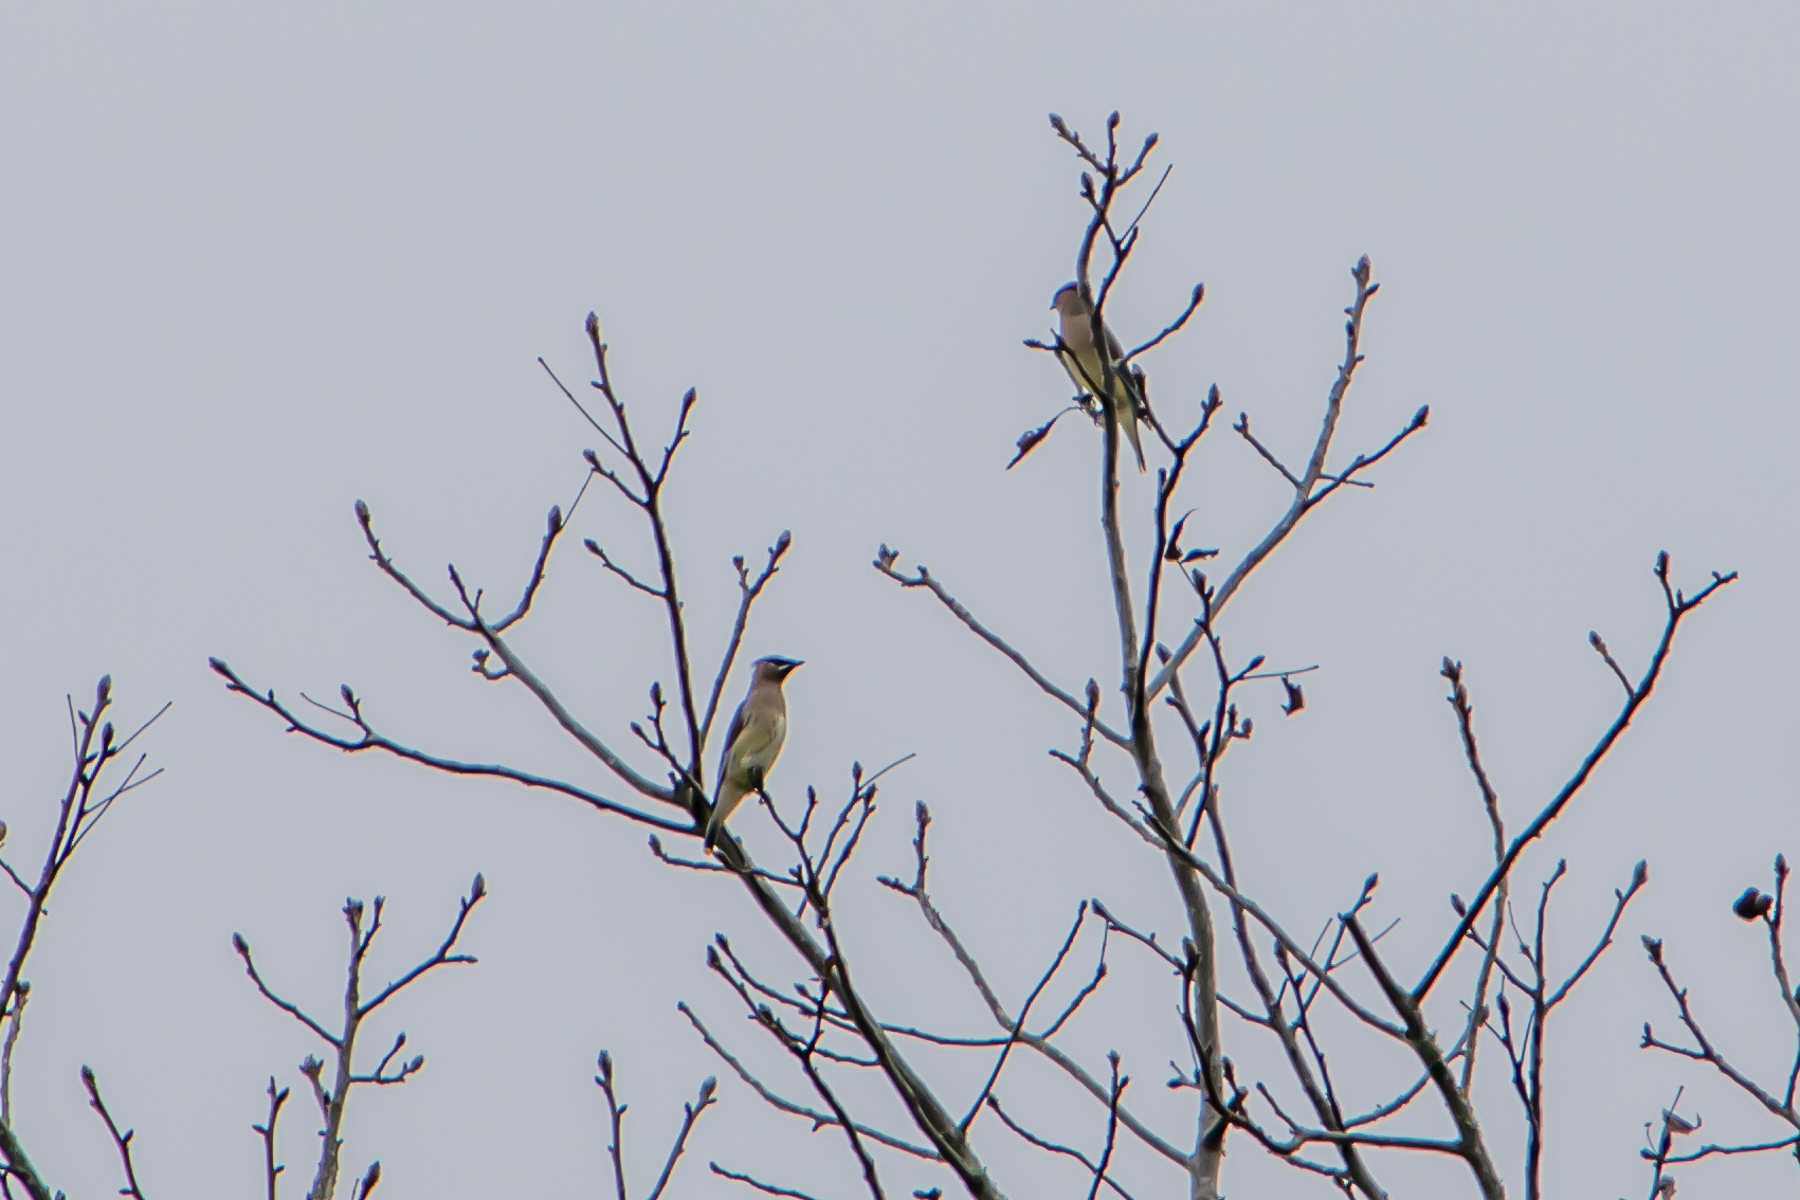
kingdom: Animalia
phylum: Chordata
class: Aves
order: Passeriformes
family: Bombycillidae
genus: Bombycilla
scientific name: Bombycilla cedrorum
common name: Cedar waxwing
